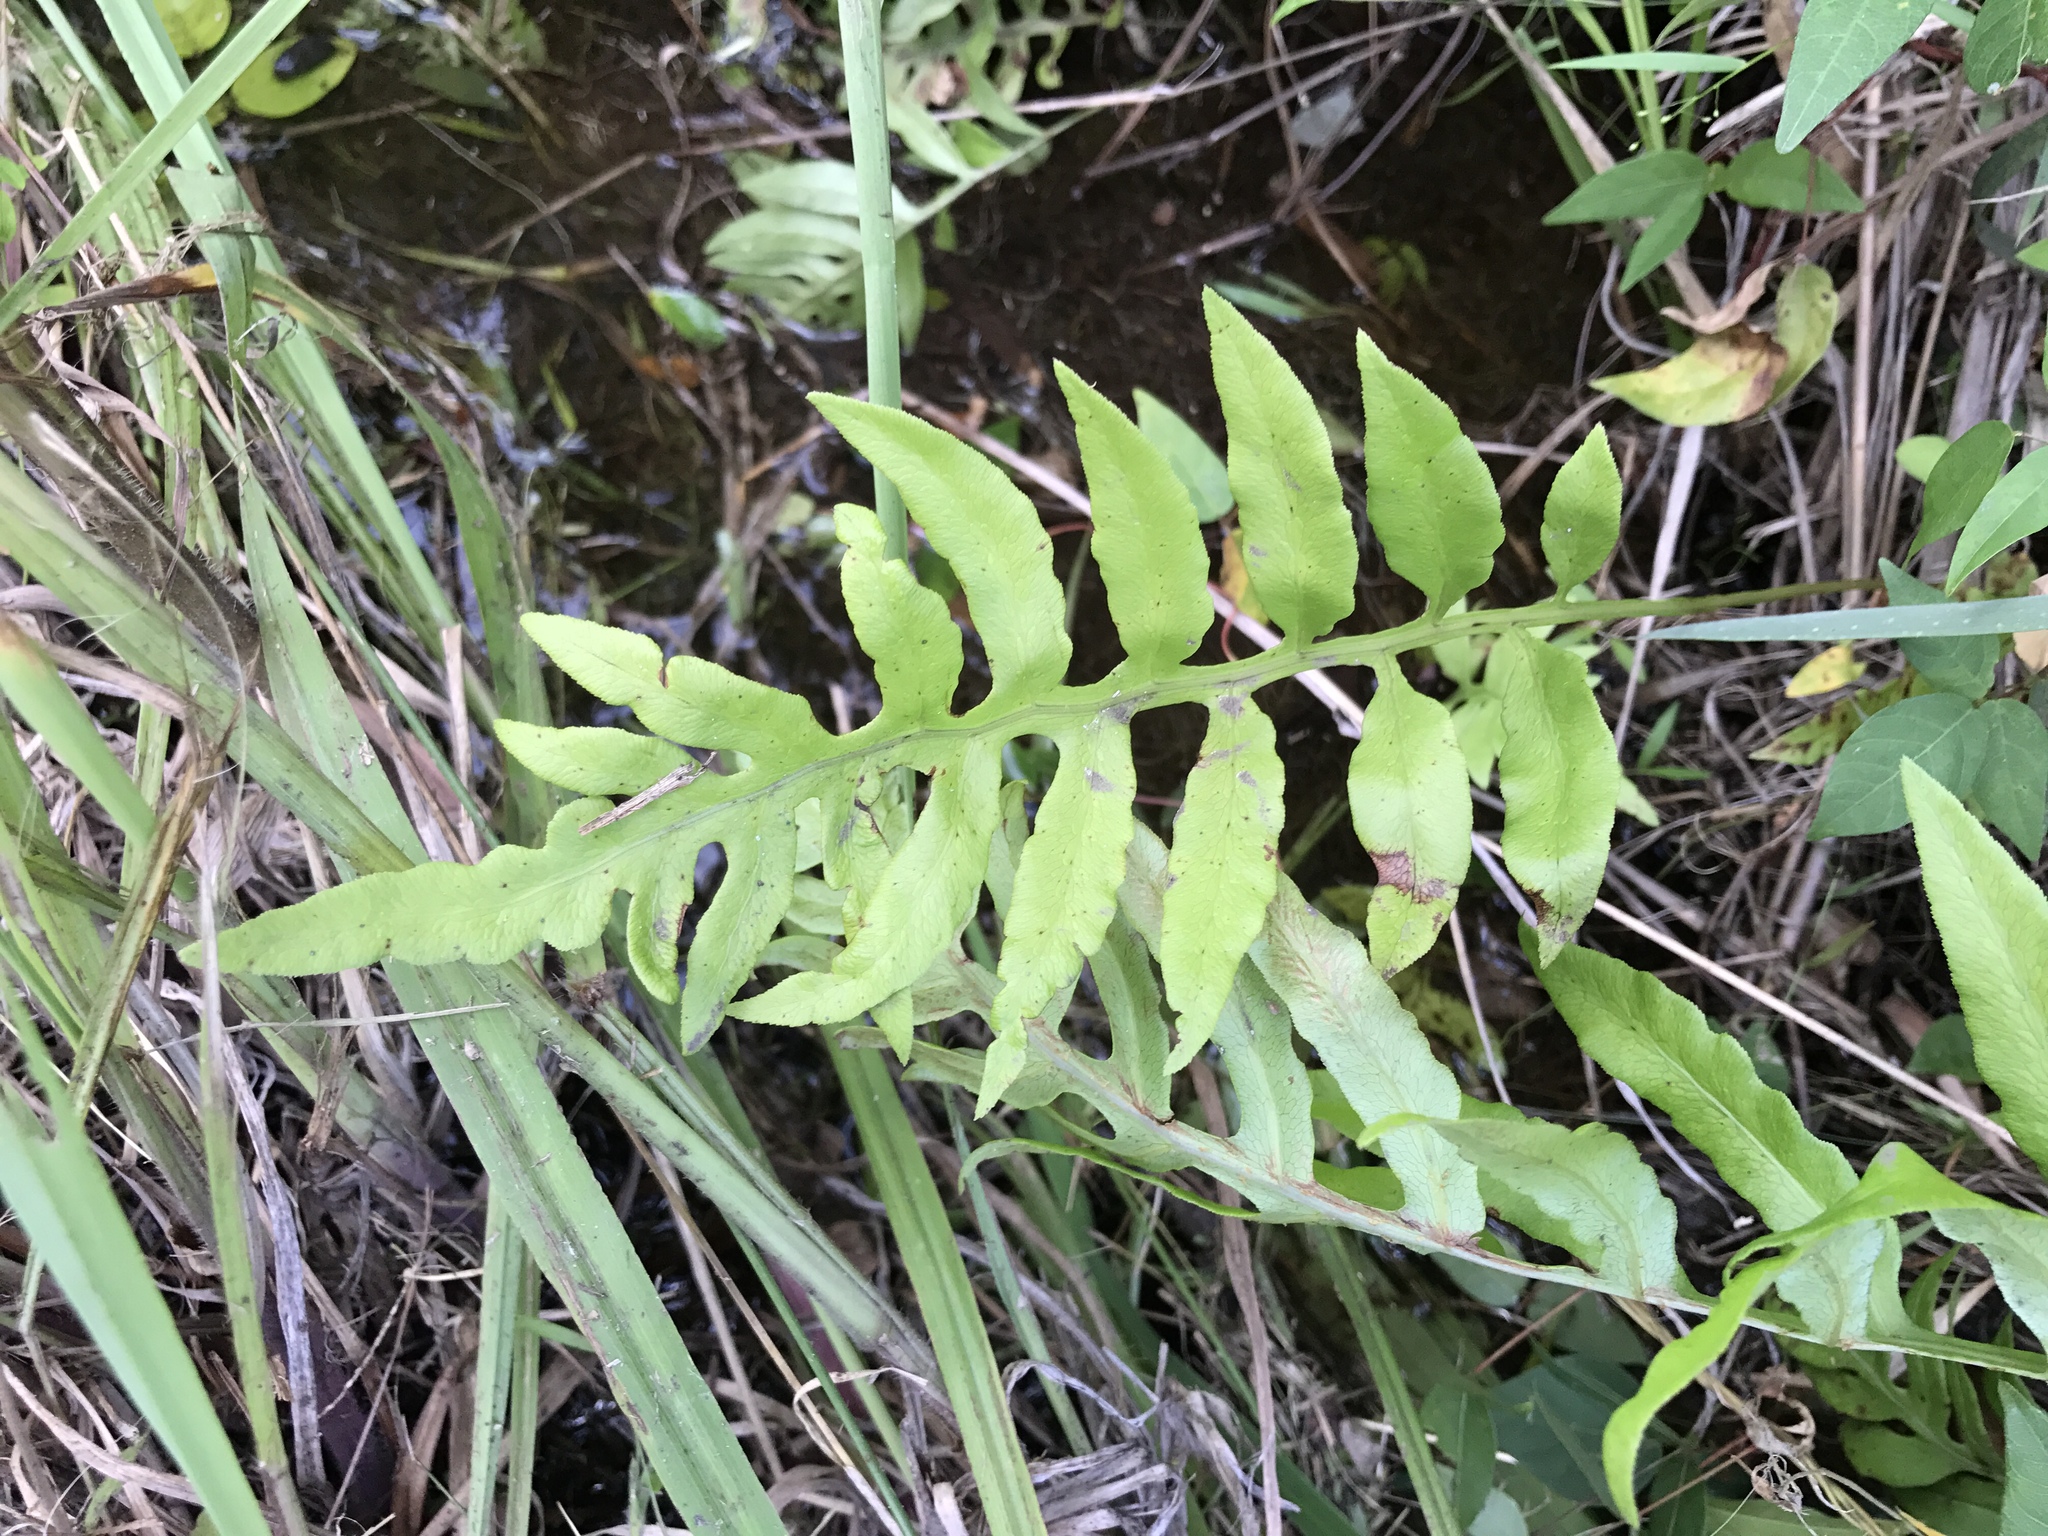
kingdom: Plantae
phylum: Tracheophyta
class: Polypodiopsida
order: Polypodiales
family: Blechnaceae
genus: Lorinseria
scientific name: Lorinseria areolata
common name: Dwarf chain fern
